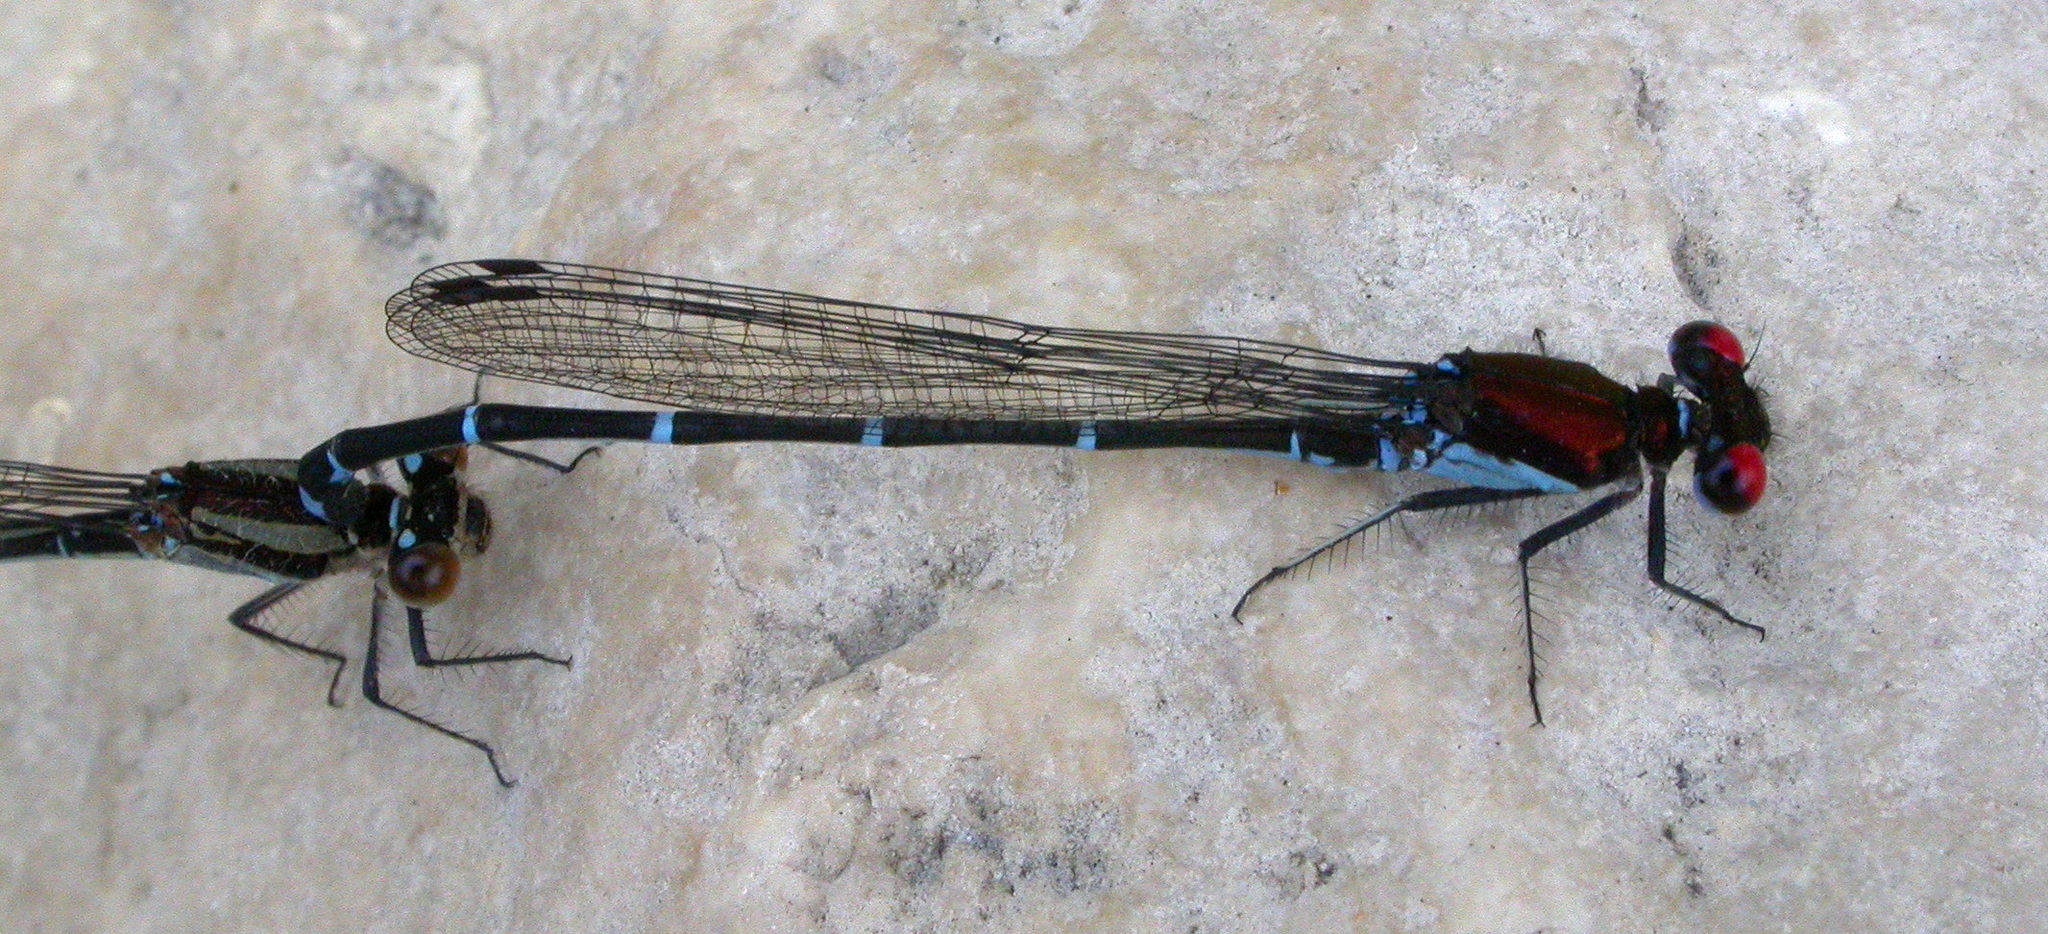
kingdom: Animalia
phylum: Arthropoda
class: Insecta
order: Odonata
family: Coenagrionidae
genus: Argia
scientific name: Argia cuprea
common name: Coppery dancer
